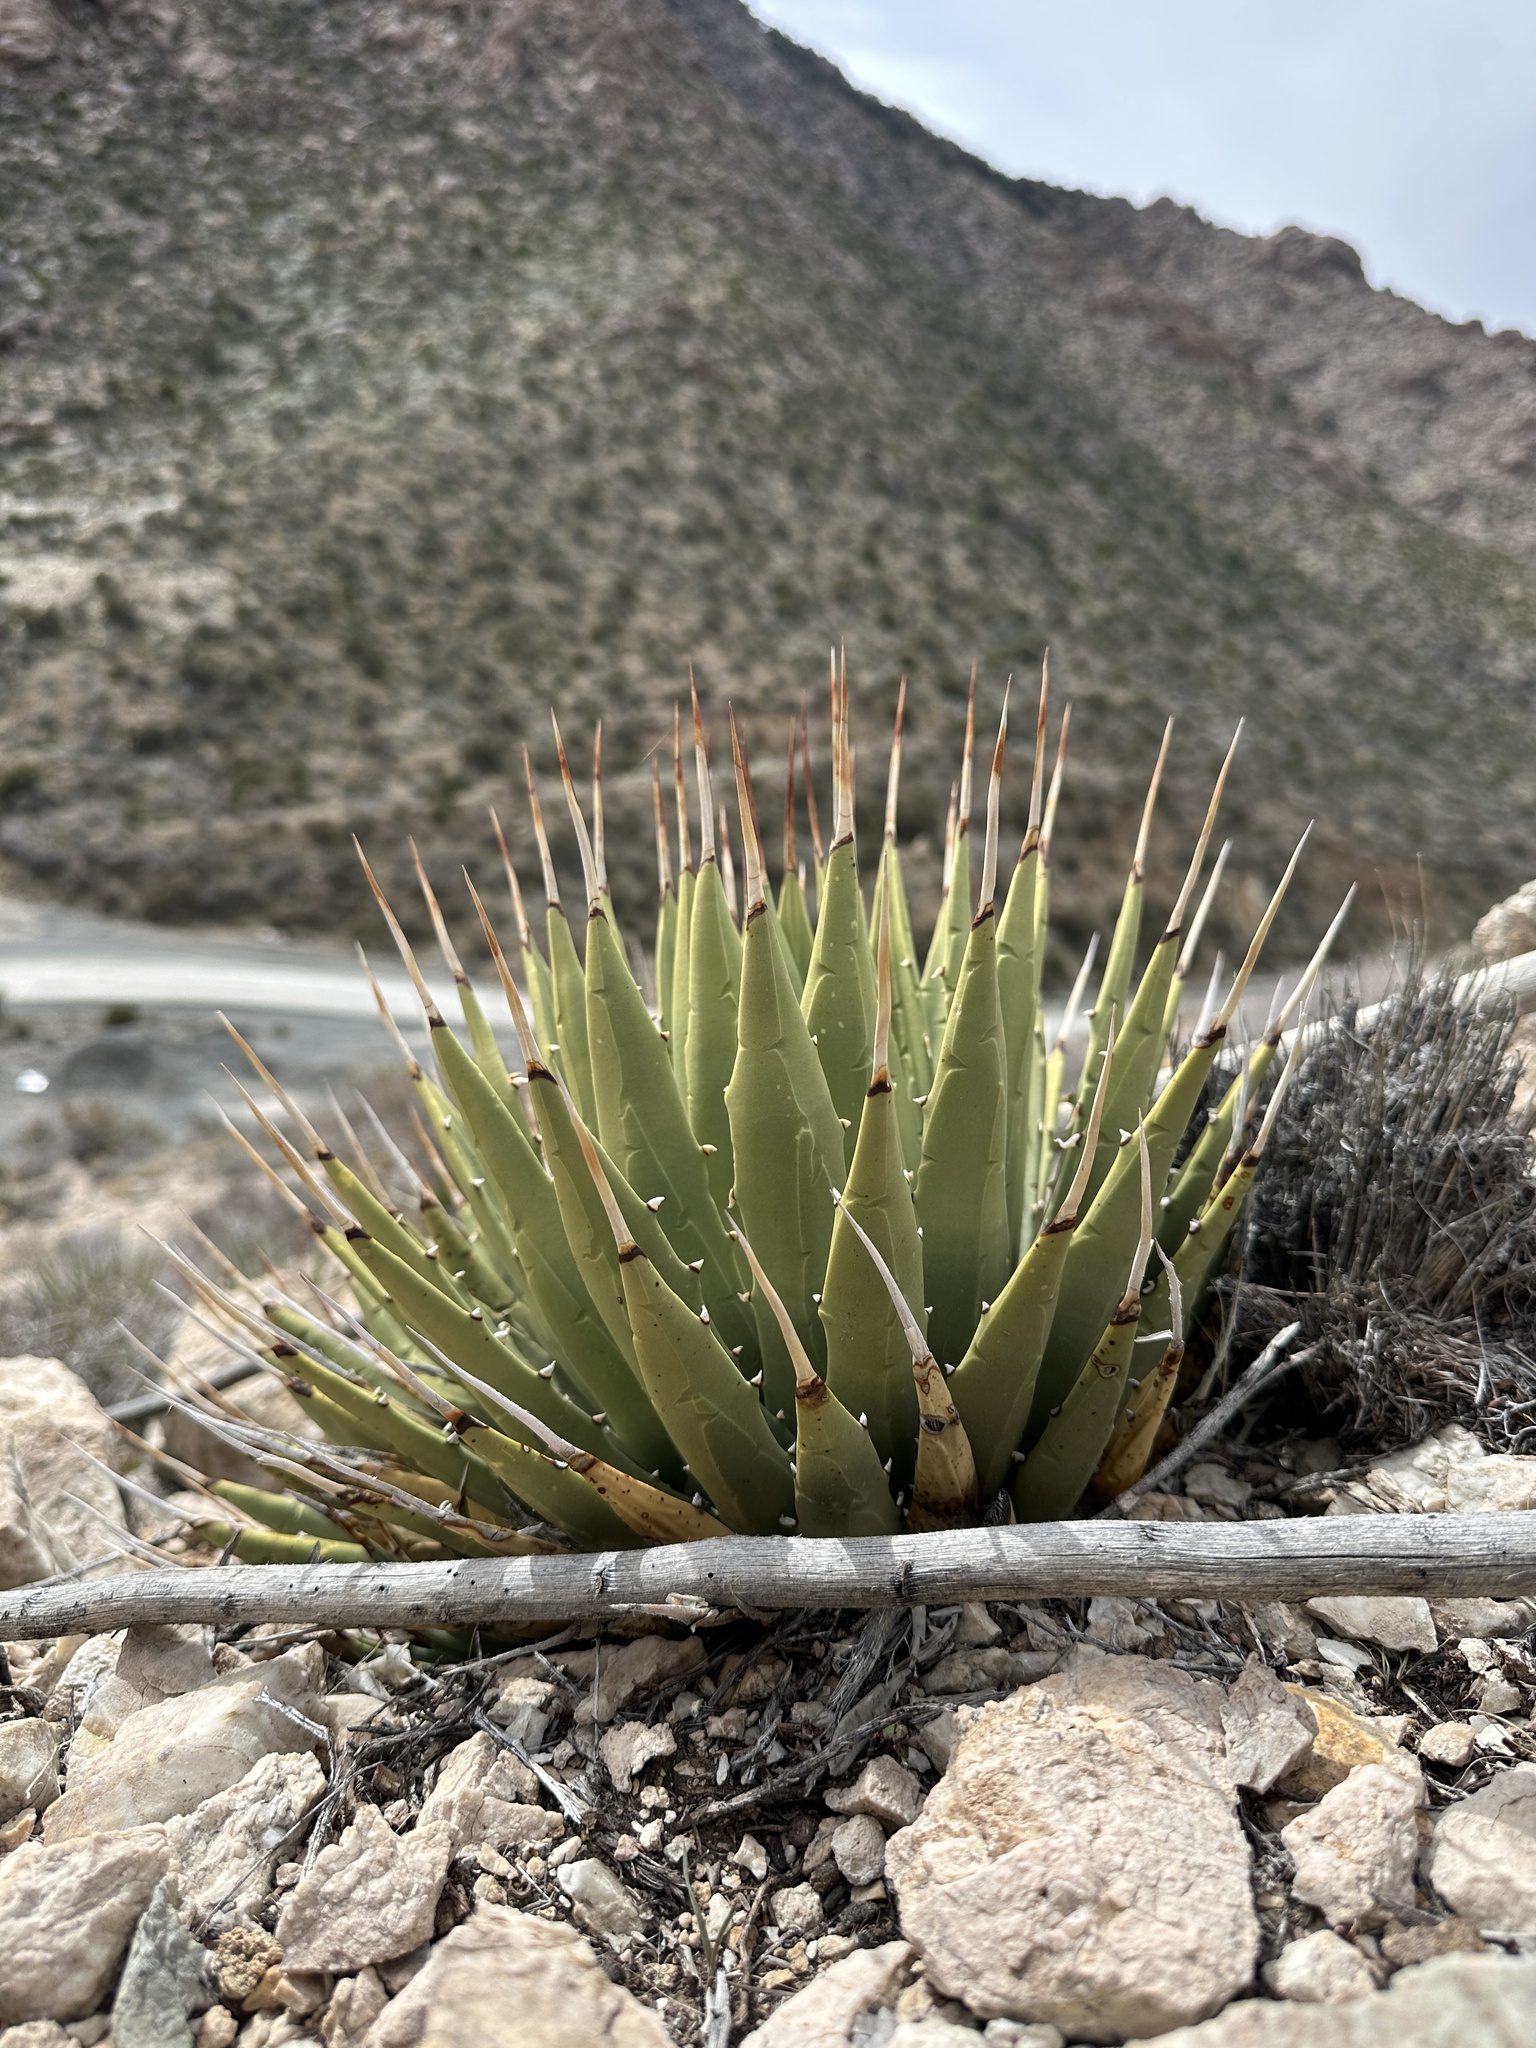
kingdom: Plantae
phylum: Tracheophyta
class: Liliopsida
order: Asparagales
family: Asparagaceae
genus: Agave
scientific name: Agave utahensis
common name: Utah agave
